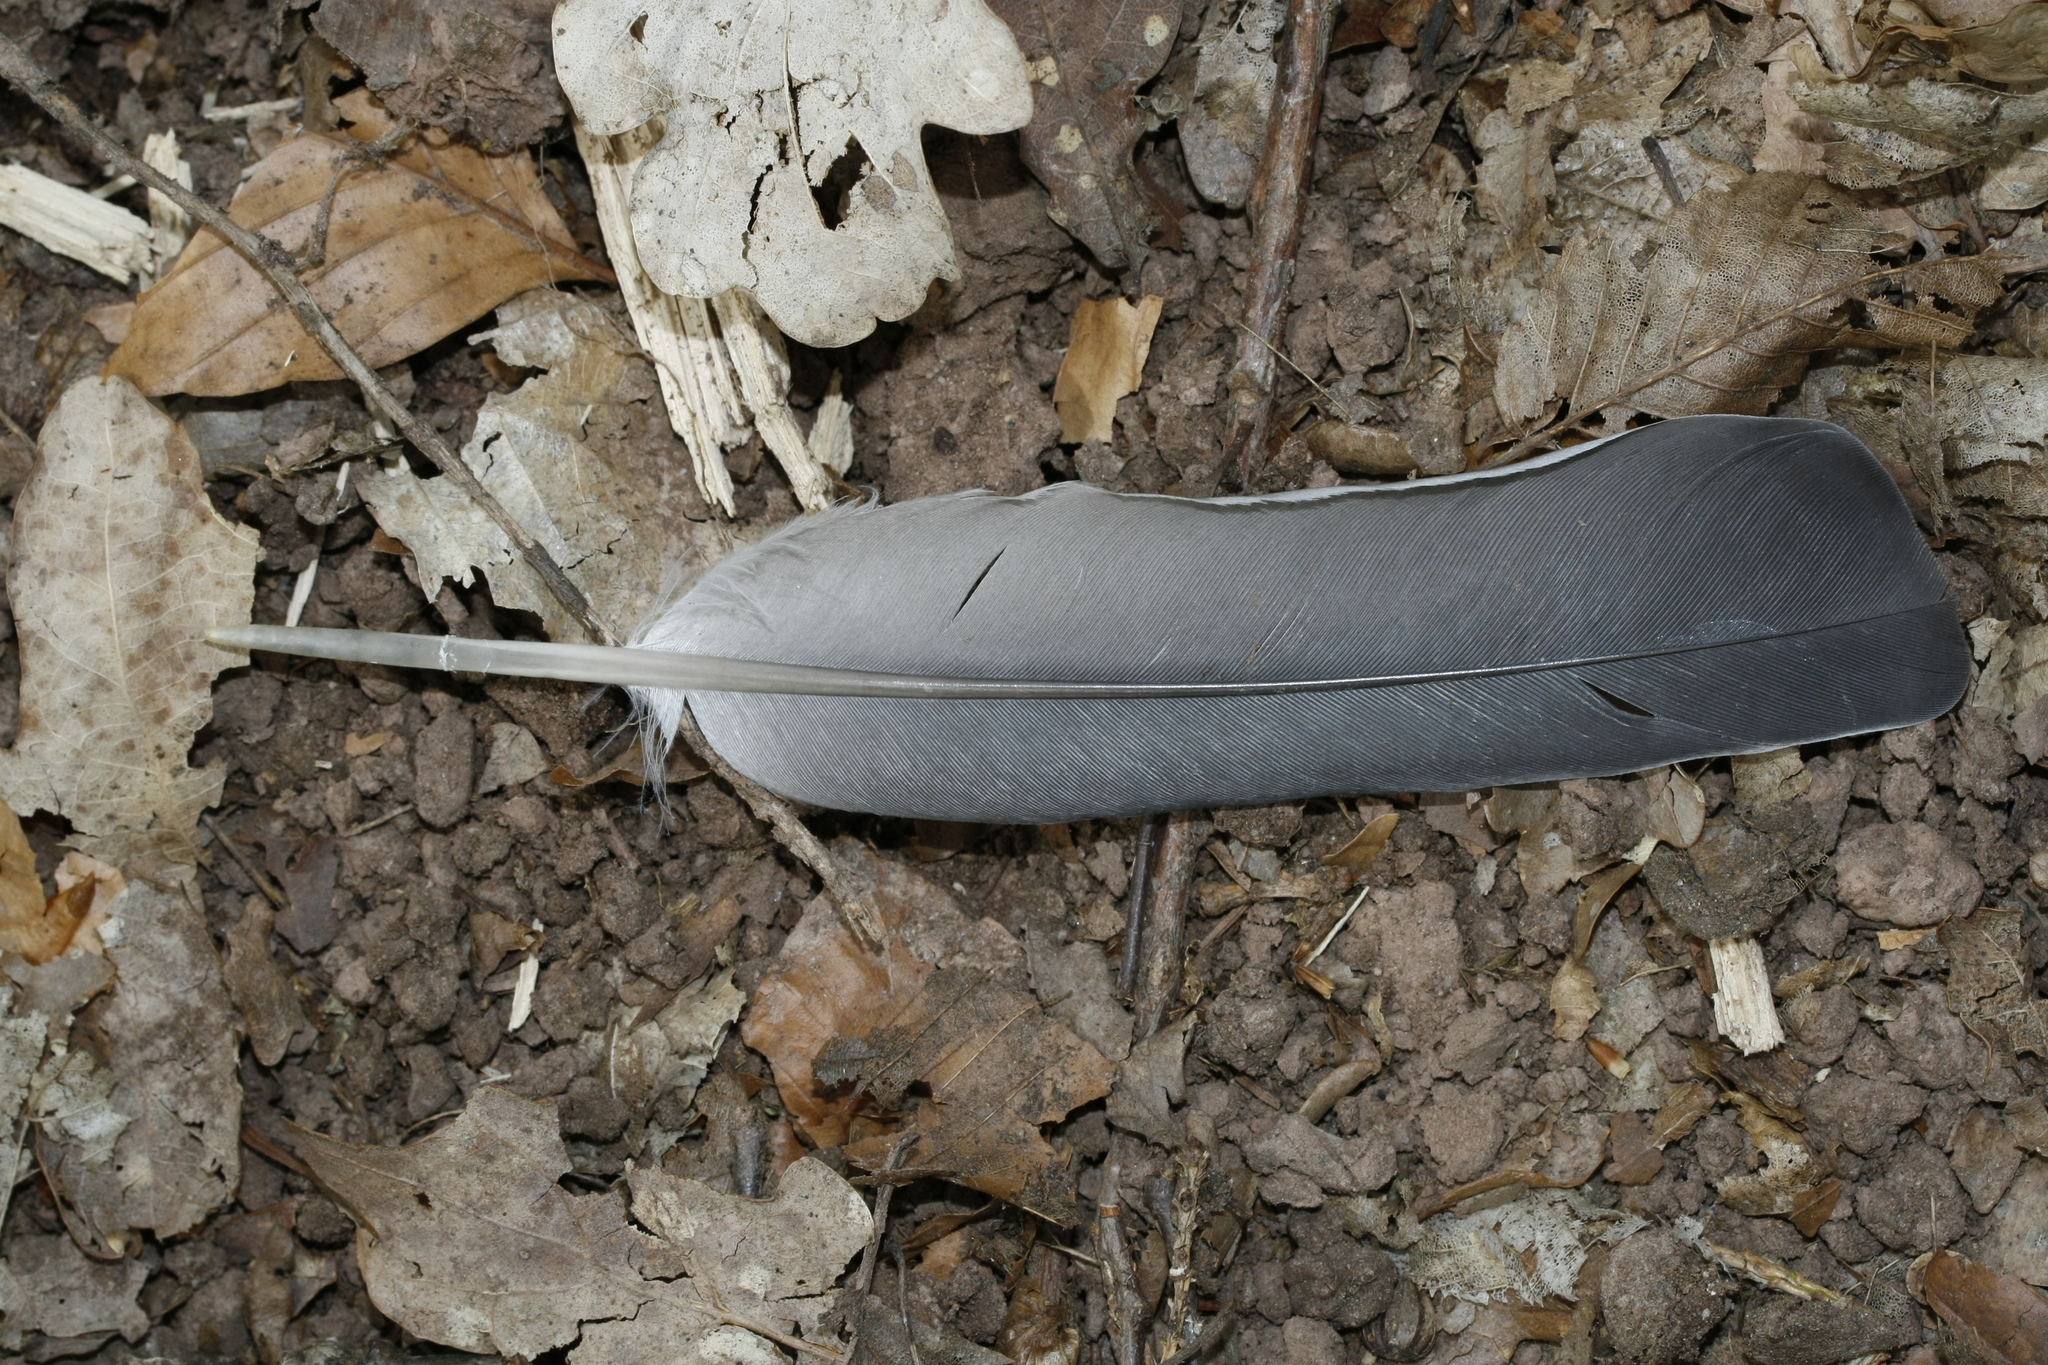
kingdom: Animalia
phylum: Chordata
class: Aves
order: Columbiformes
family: Columbidae
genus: Columba
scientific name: Columba palumbus
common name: Common wood pigeon
